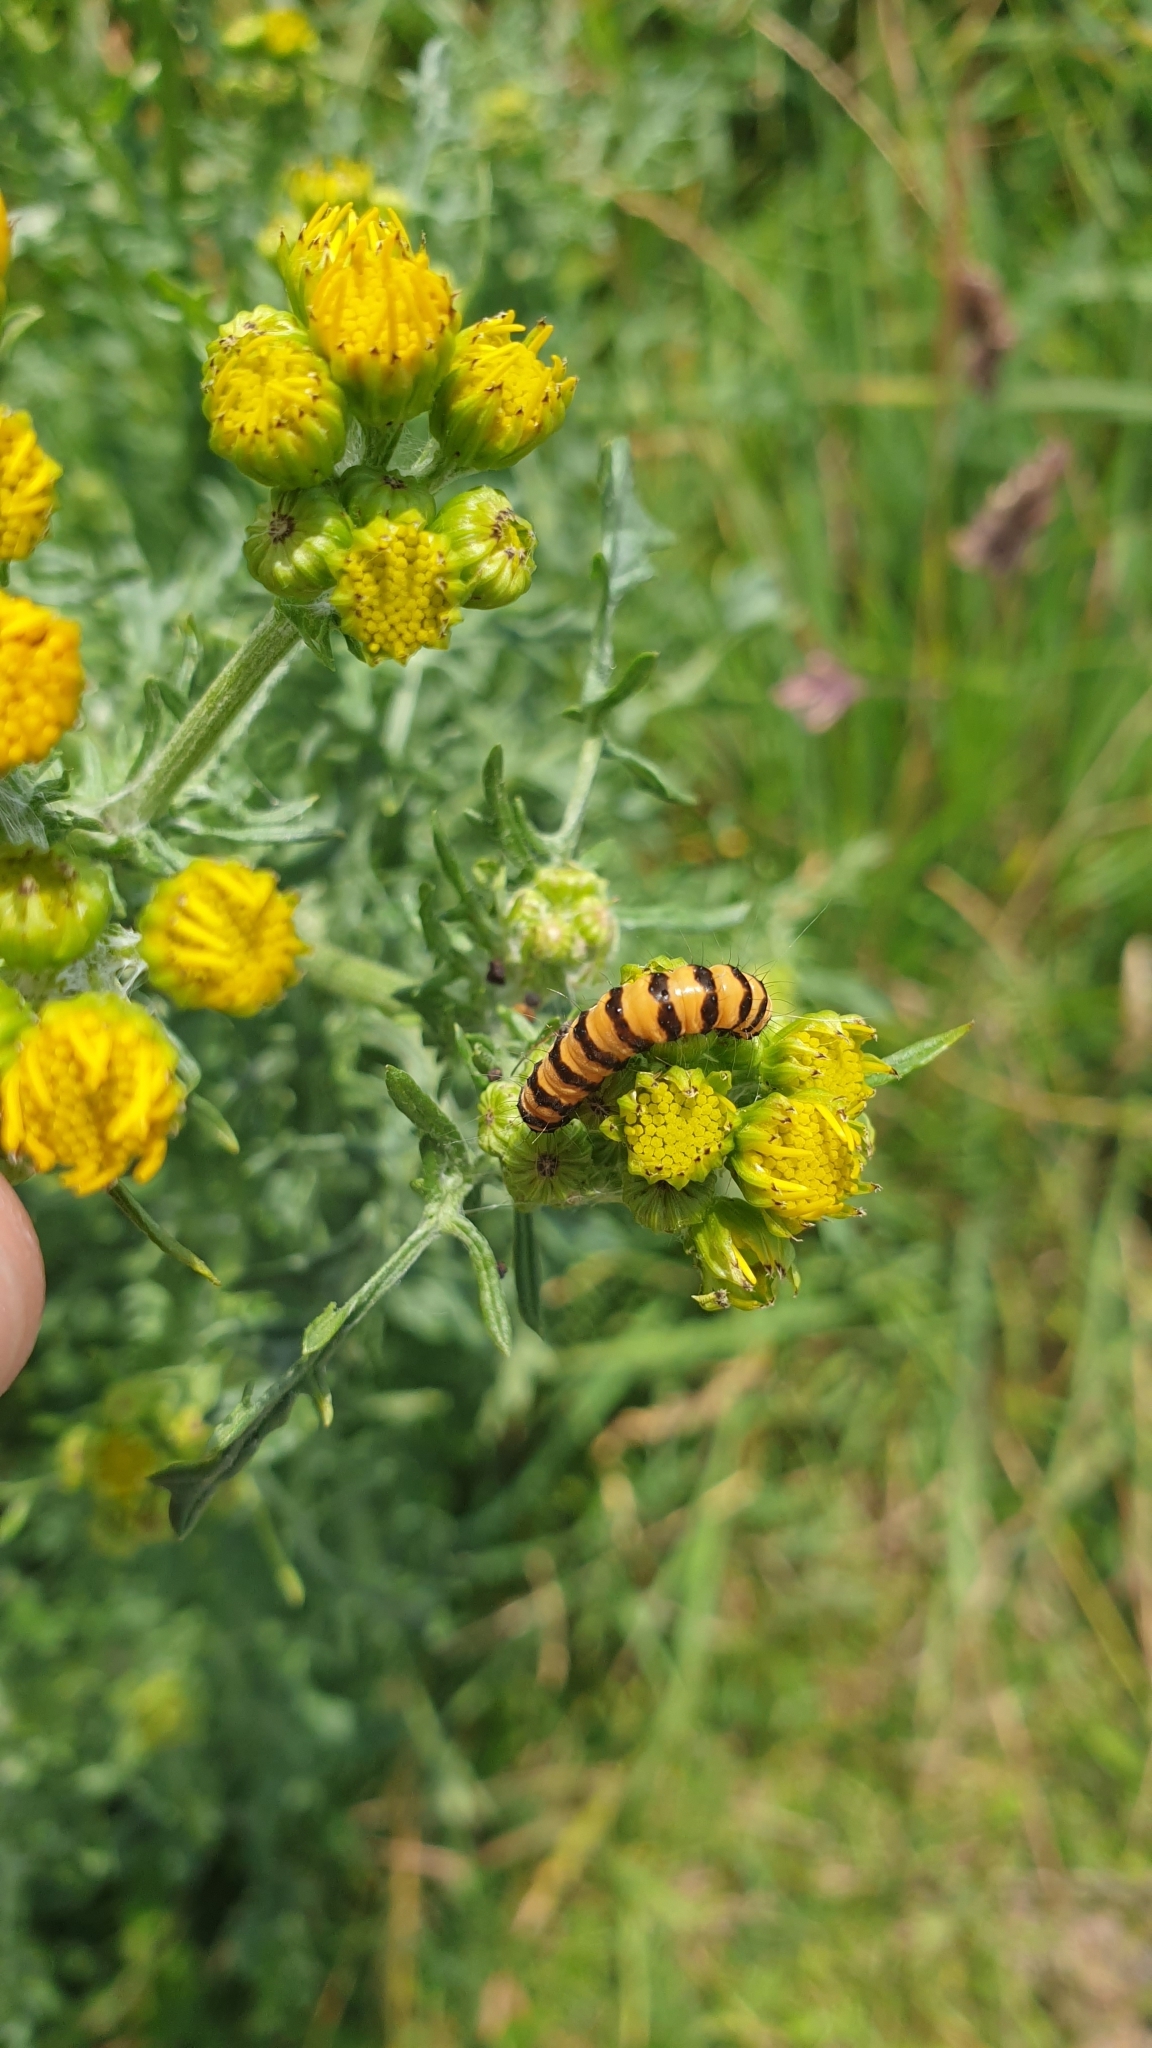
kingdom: Animalia
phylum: Arthropoda
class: Insecta
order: Lepidoptera
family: Erebidae
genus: Tyria
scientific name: Tyria jacobaeae
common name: Cinnabar
